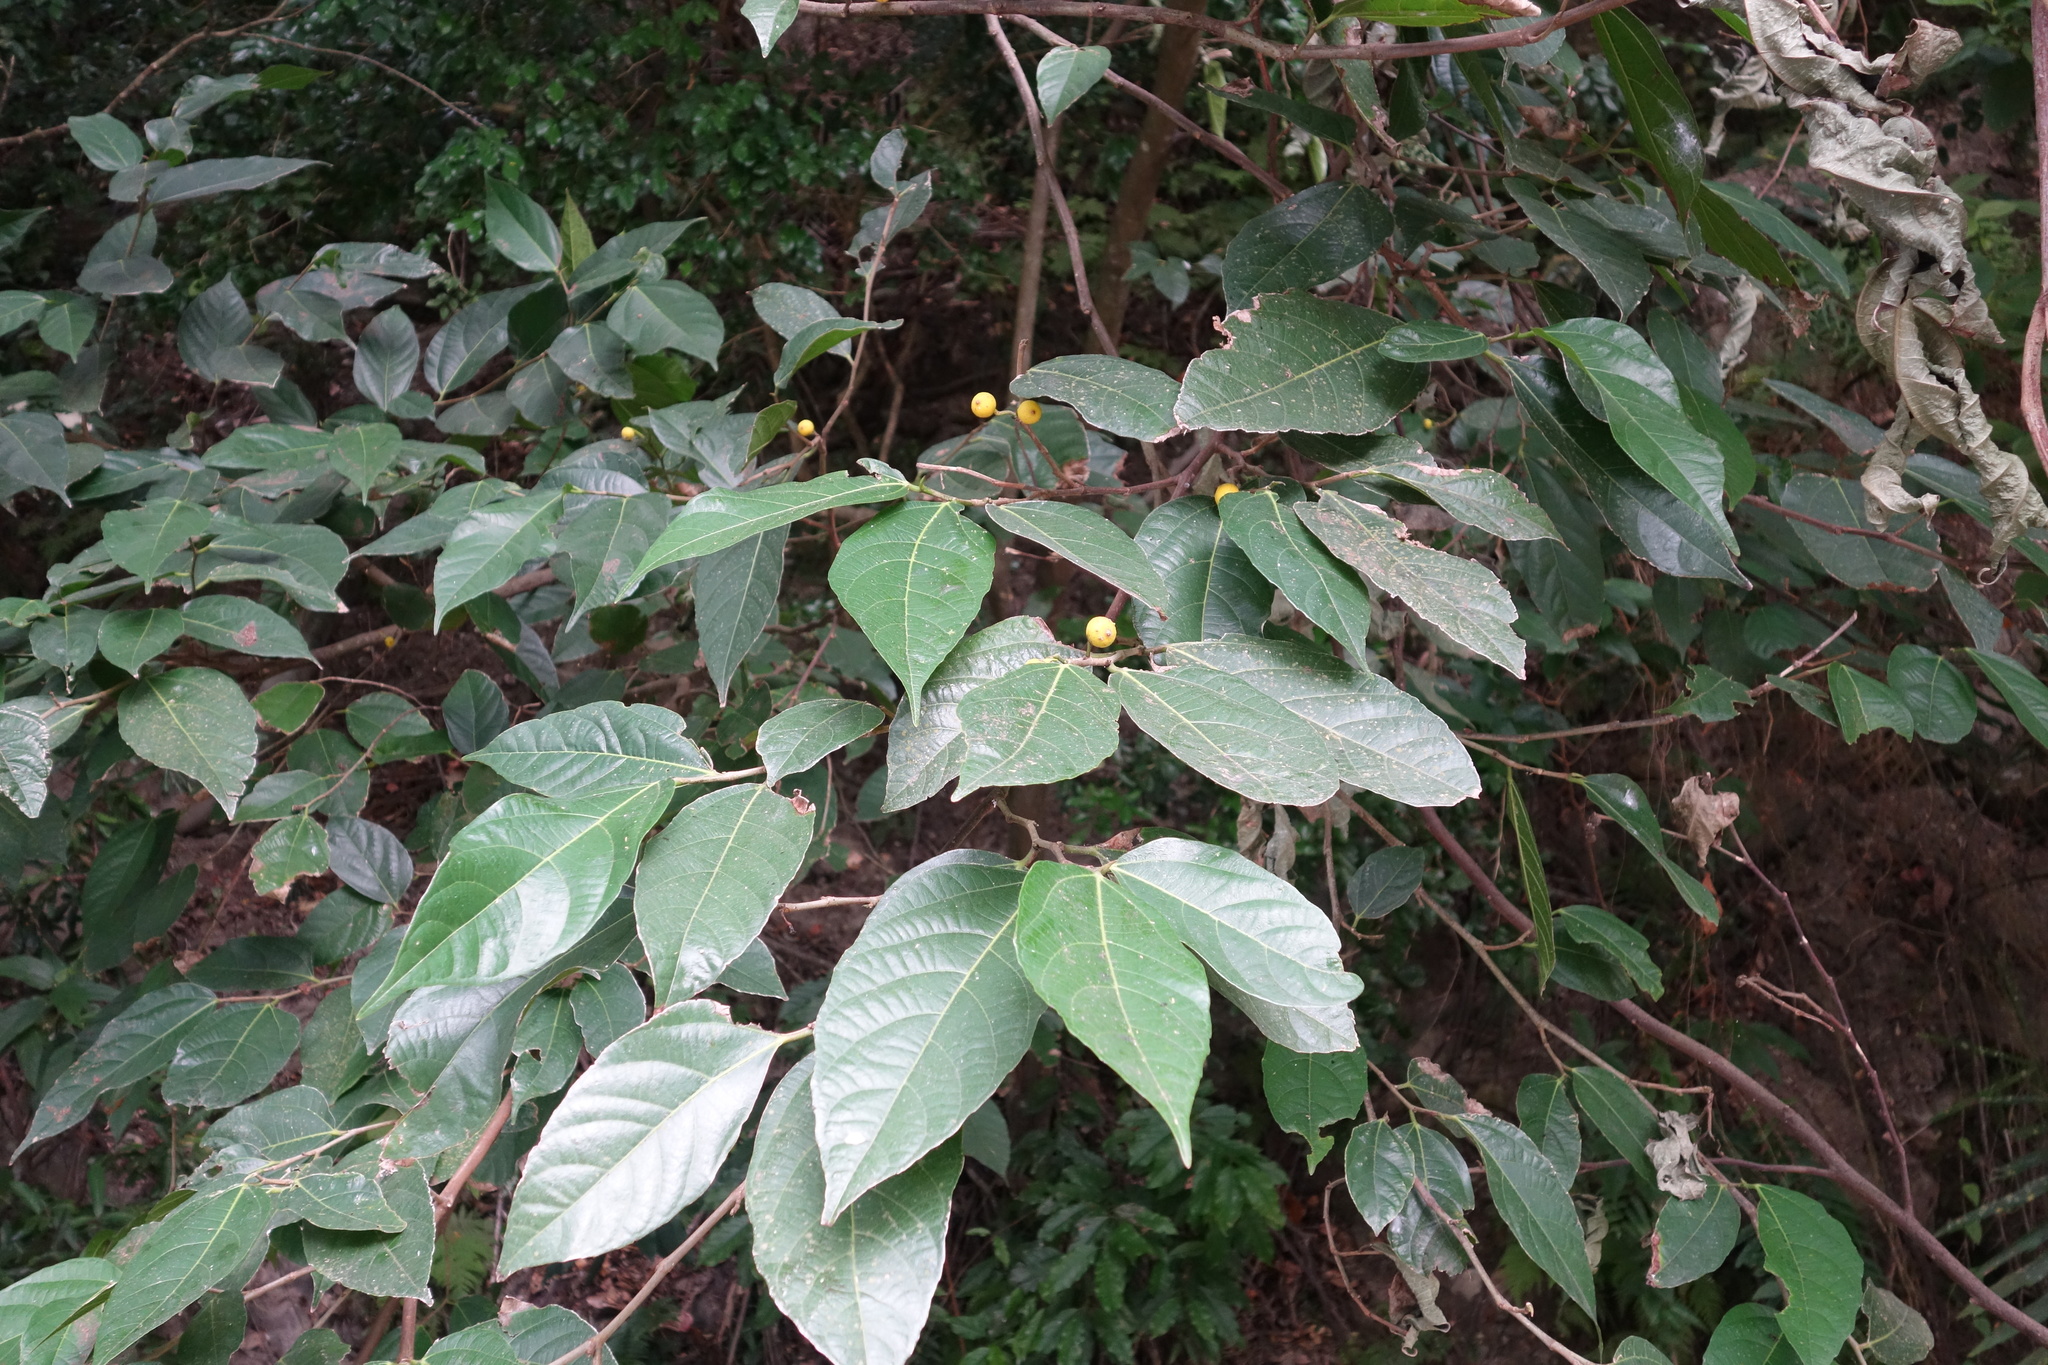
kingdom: Plantae
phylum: Tracheophyta
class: Magnoliopsida
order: Rosales
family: Moraceae
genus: Ficus
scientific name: Ficus ampelos
